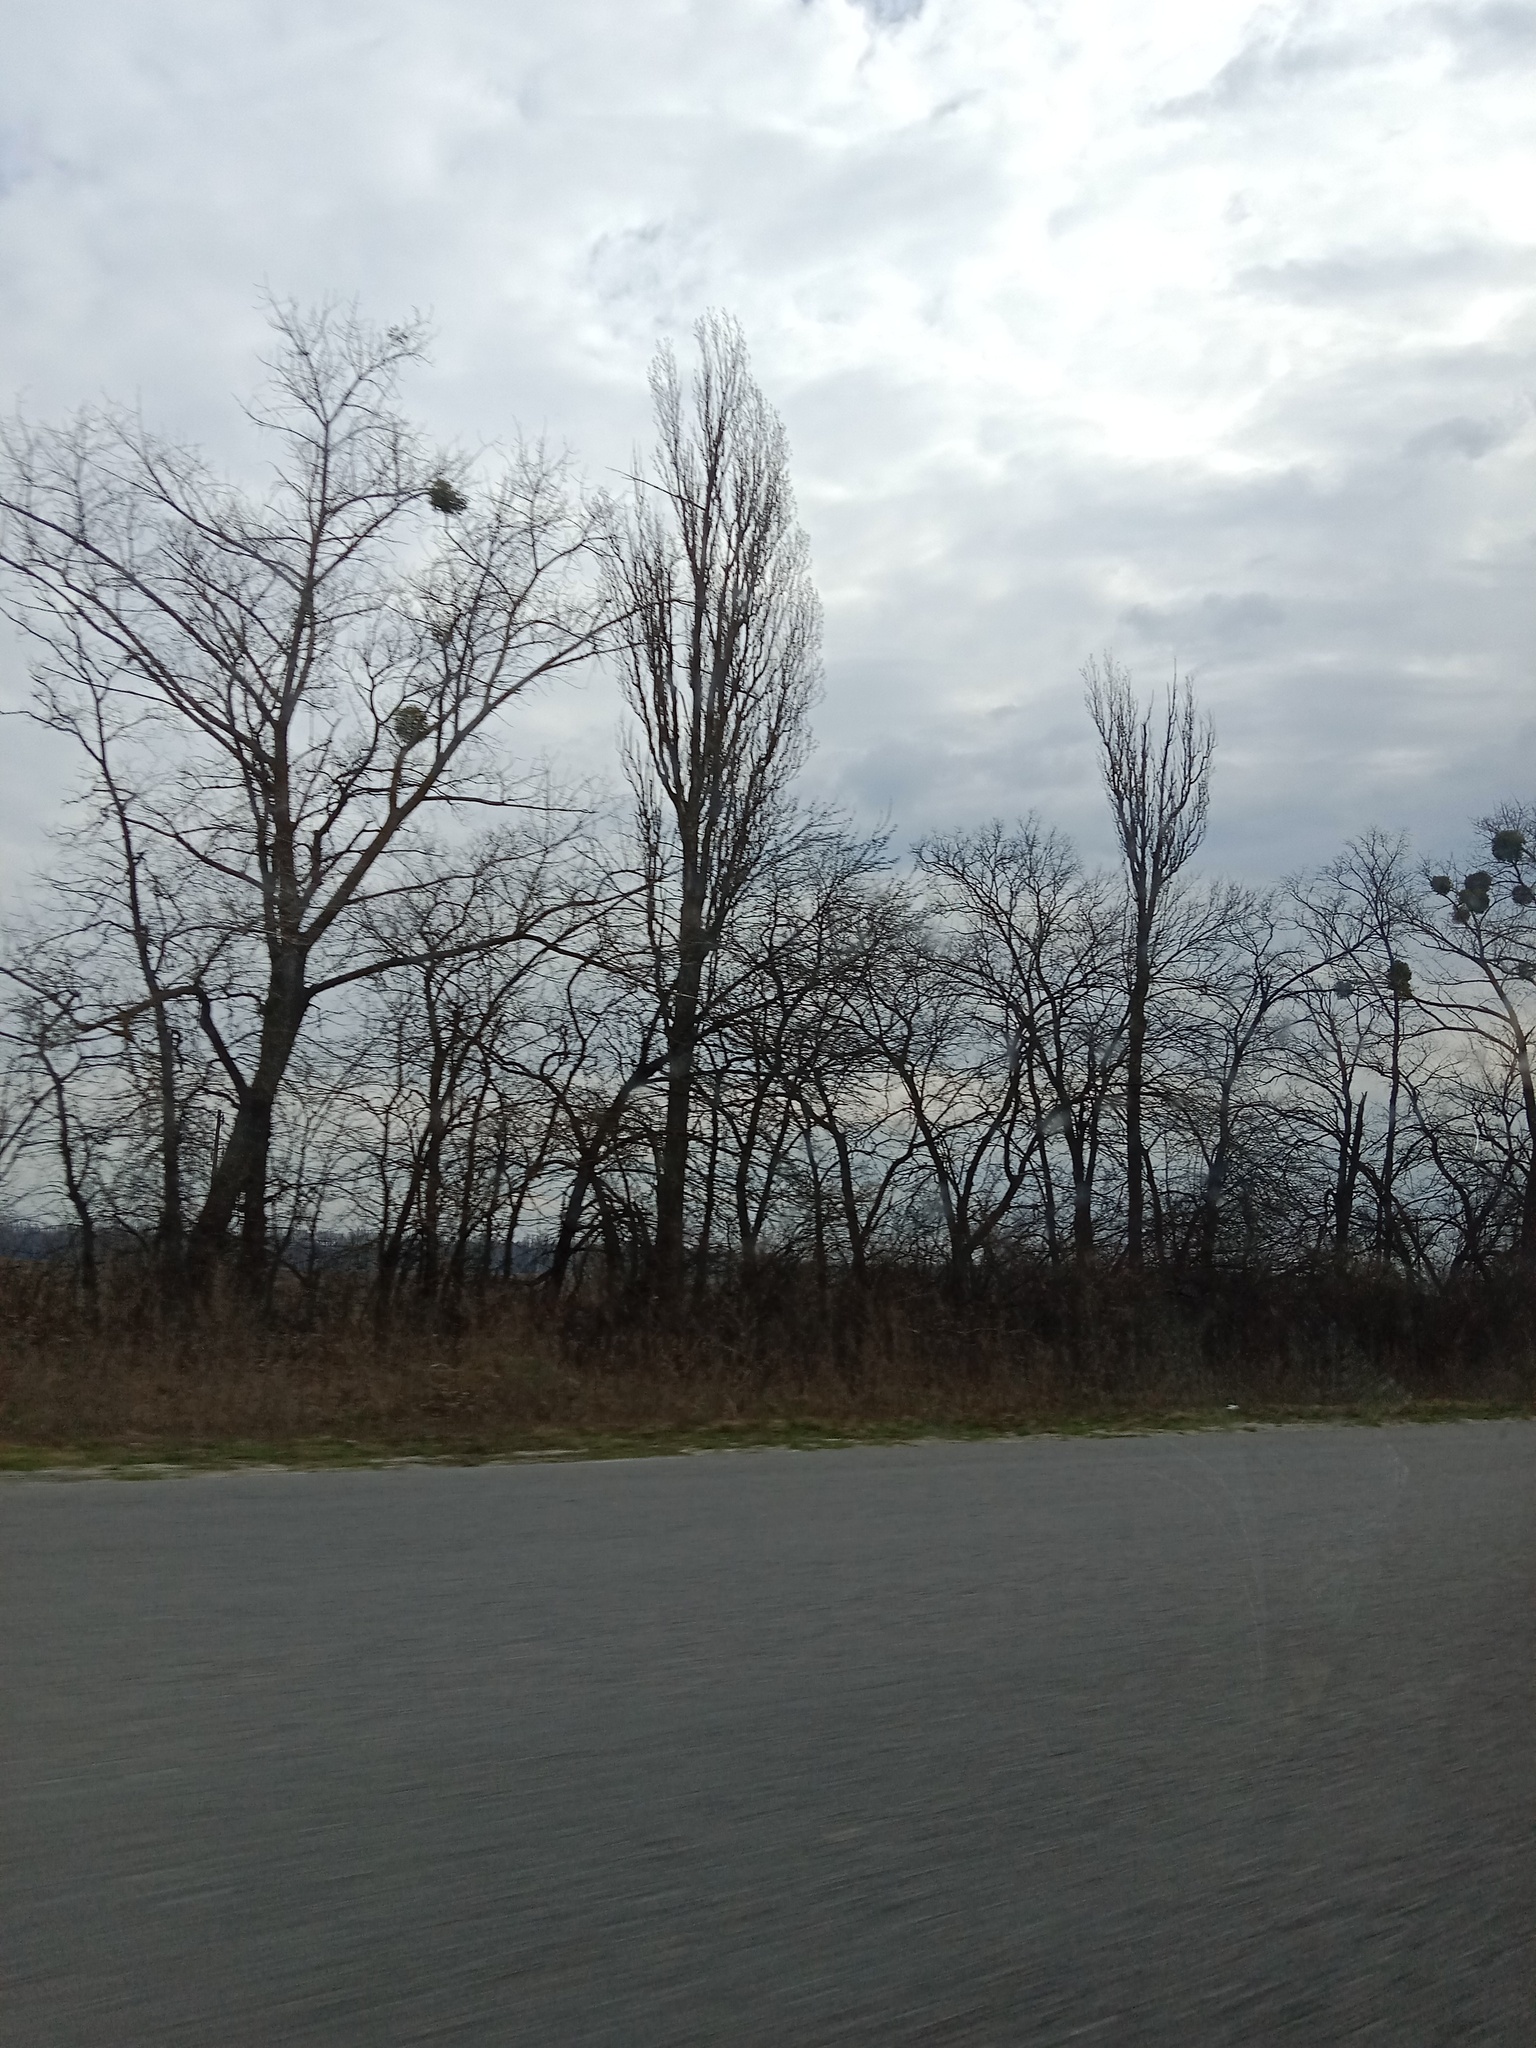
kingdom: Plantae
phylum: Tracheophyta
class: Magnoliopsida
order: Santalales
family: Viscaceae
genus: Viscum
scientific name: Viscum album
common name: Mistletoe
